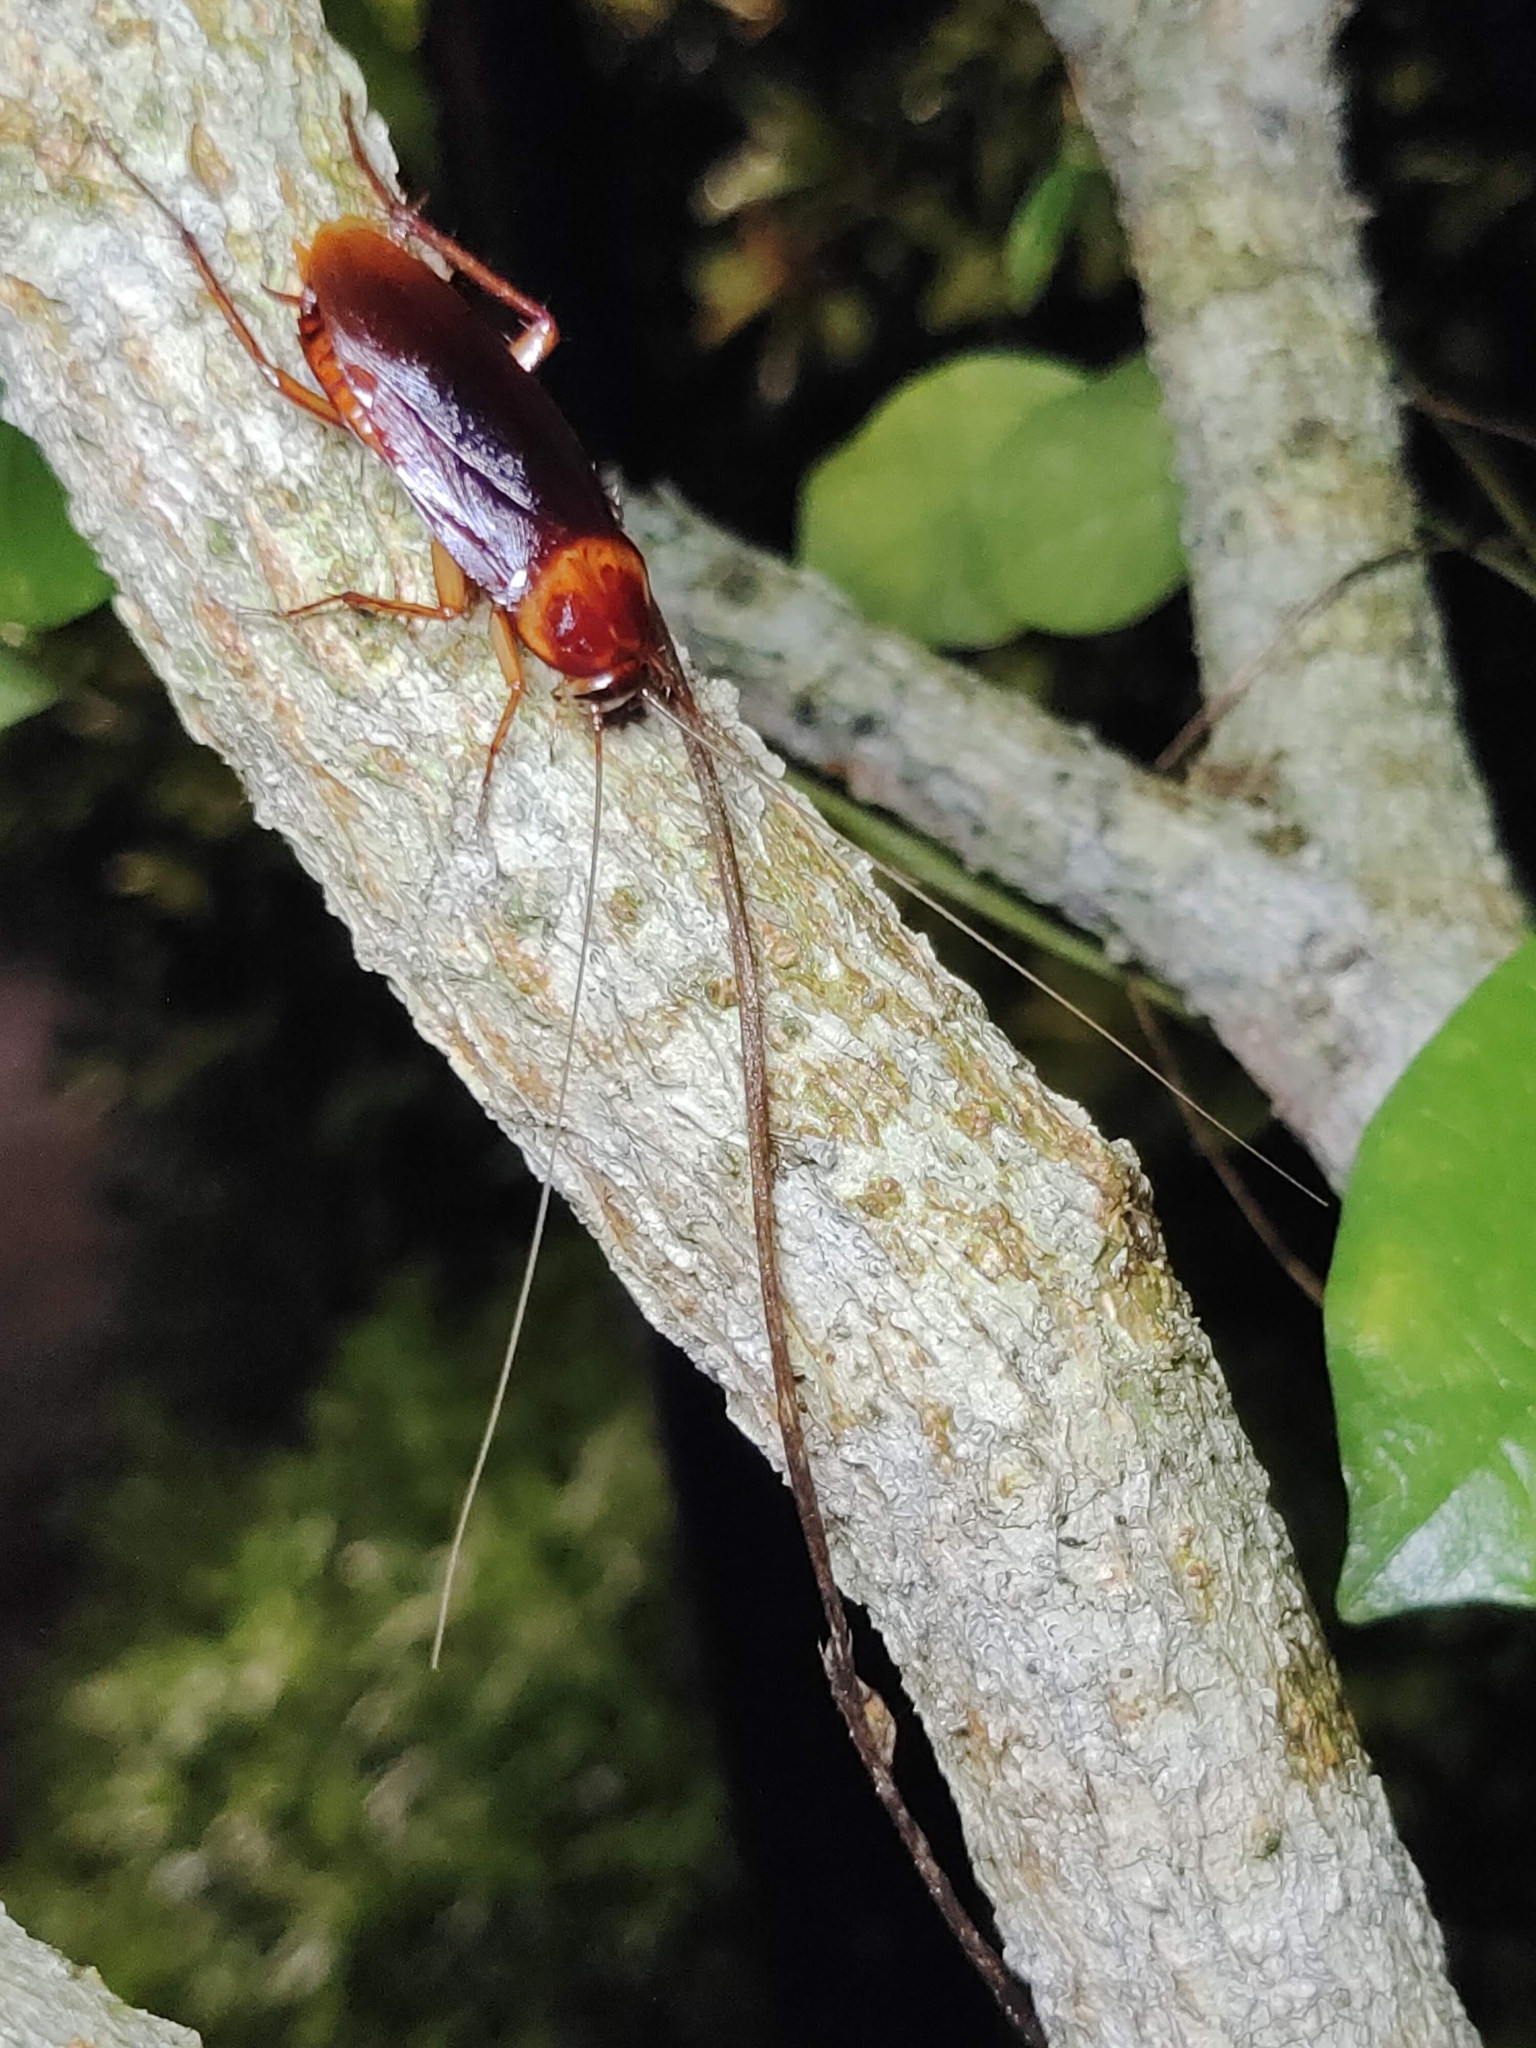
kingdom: Animalia
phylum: Arthropoda
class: Insecta
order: Blattodea
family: Blattidae
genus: Periplaneta
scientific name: Periplaneta americana
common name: American cockroach
